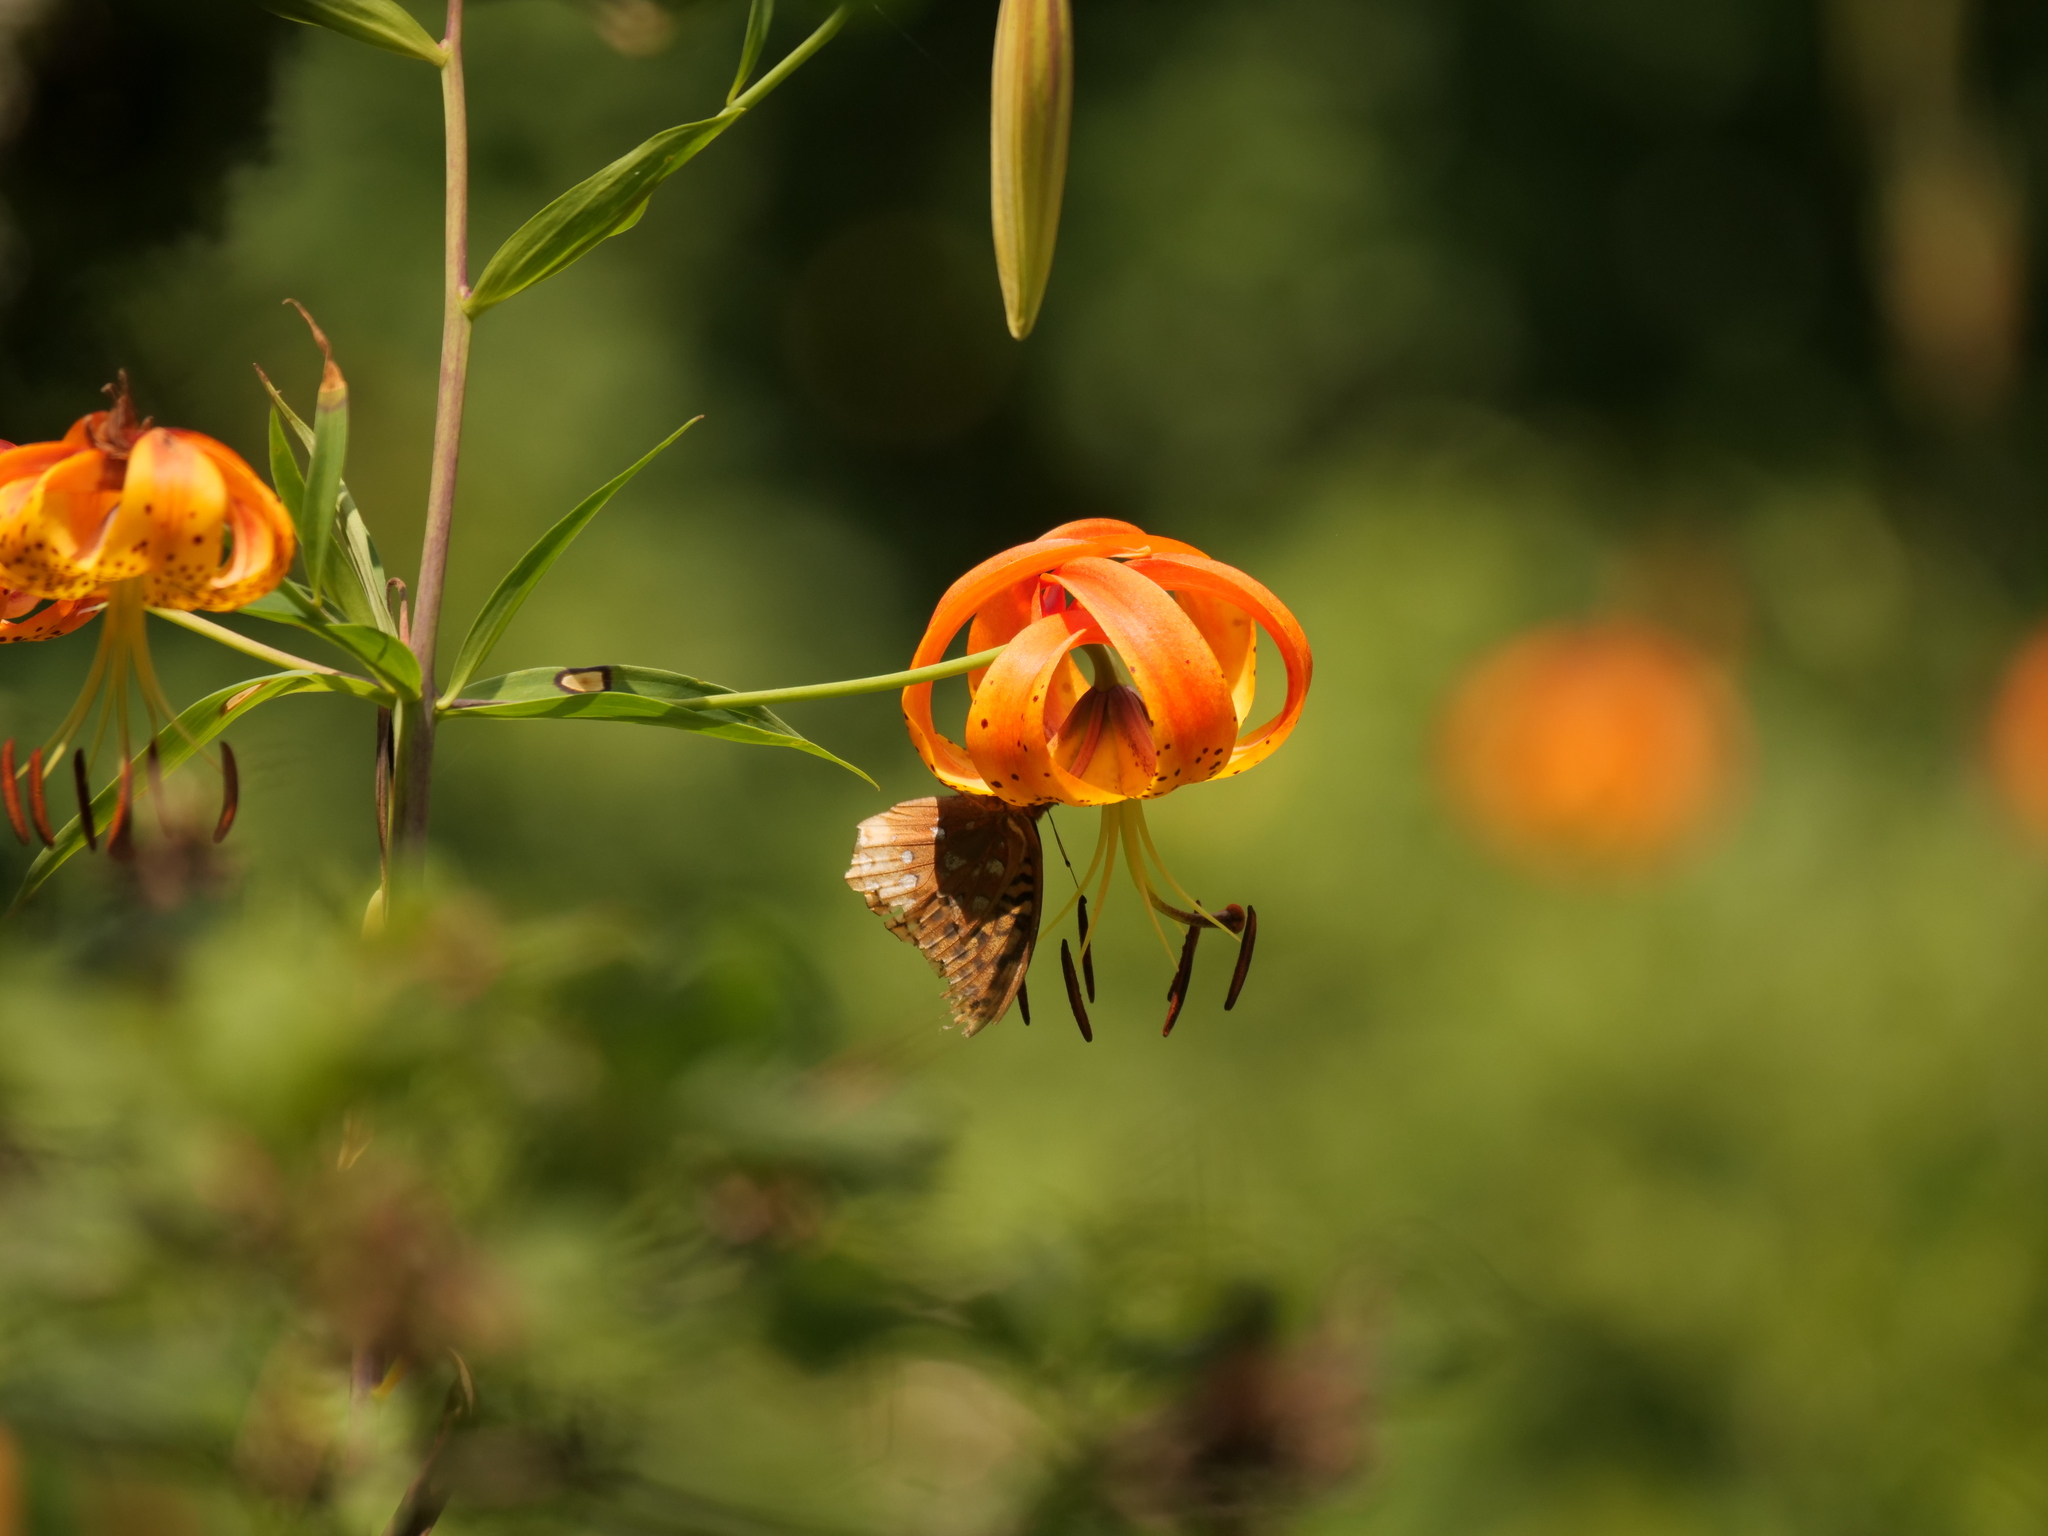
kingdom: Plantae
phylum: Tracheophyta
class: Liliopsida
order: Liliales
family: Liliaceae
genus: Lilium
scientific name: Lilium superbum
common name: American turk's-cap lily
